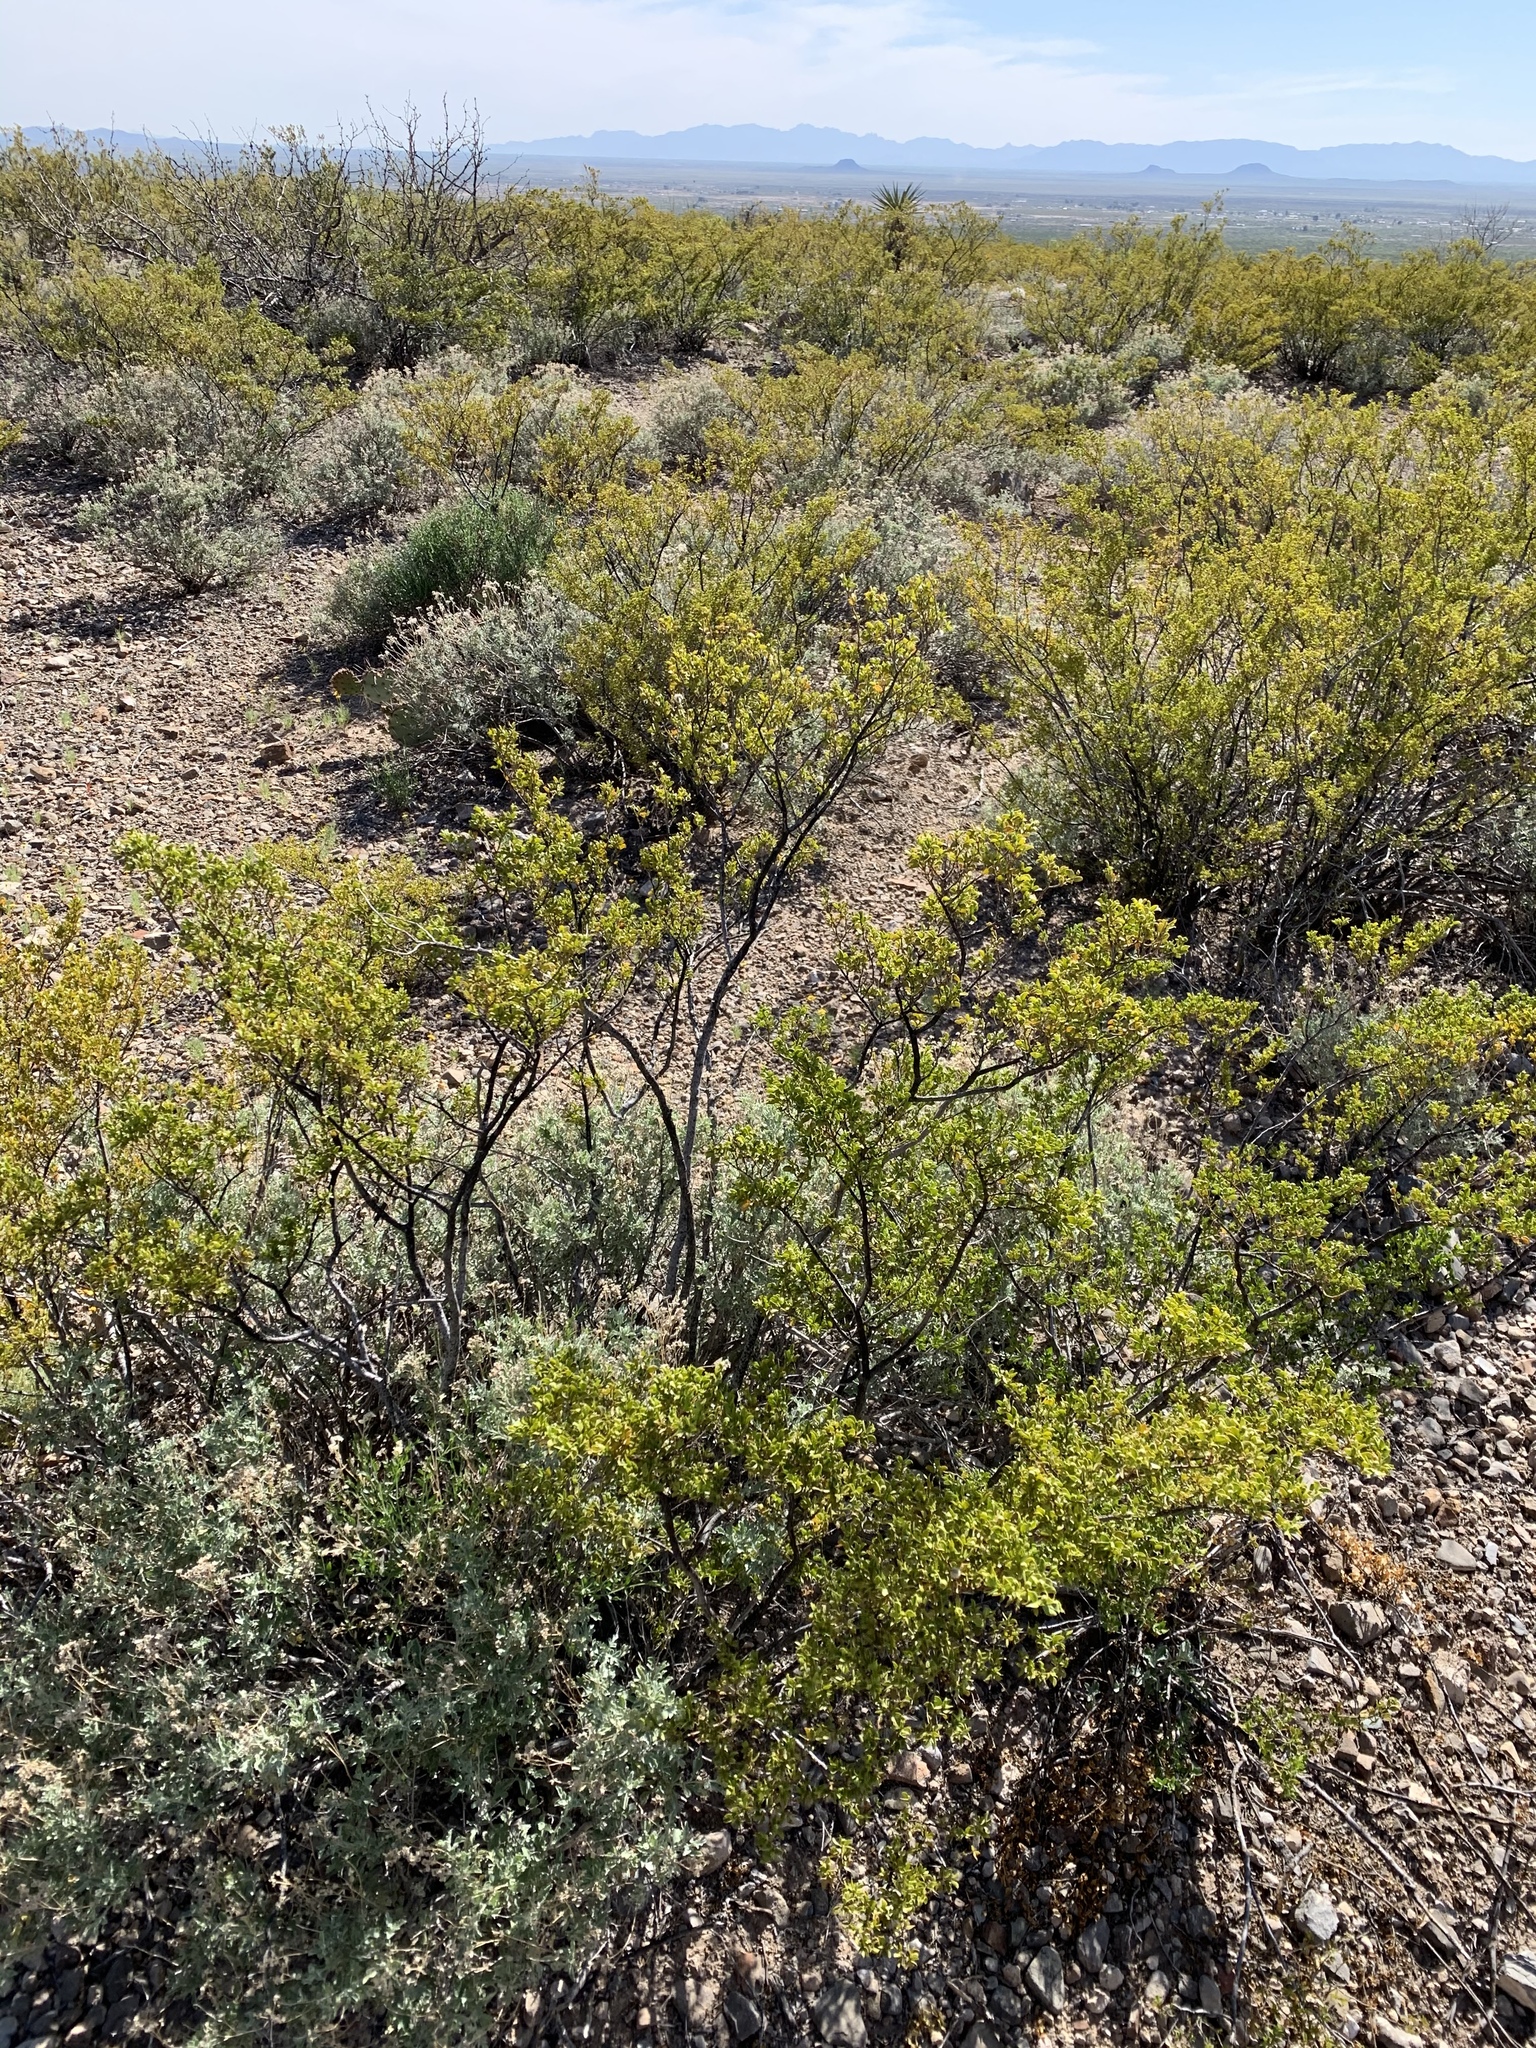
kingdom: Plantae
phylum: Tracheophyta
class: Magnoliopsida
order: Zygophyllales
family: Zygophyllaceae
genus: Larrea
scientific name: Larrea tridentata
